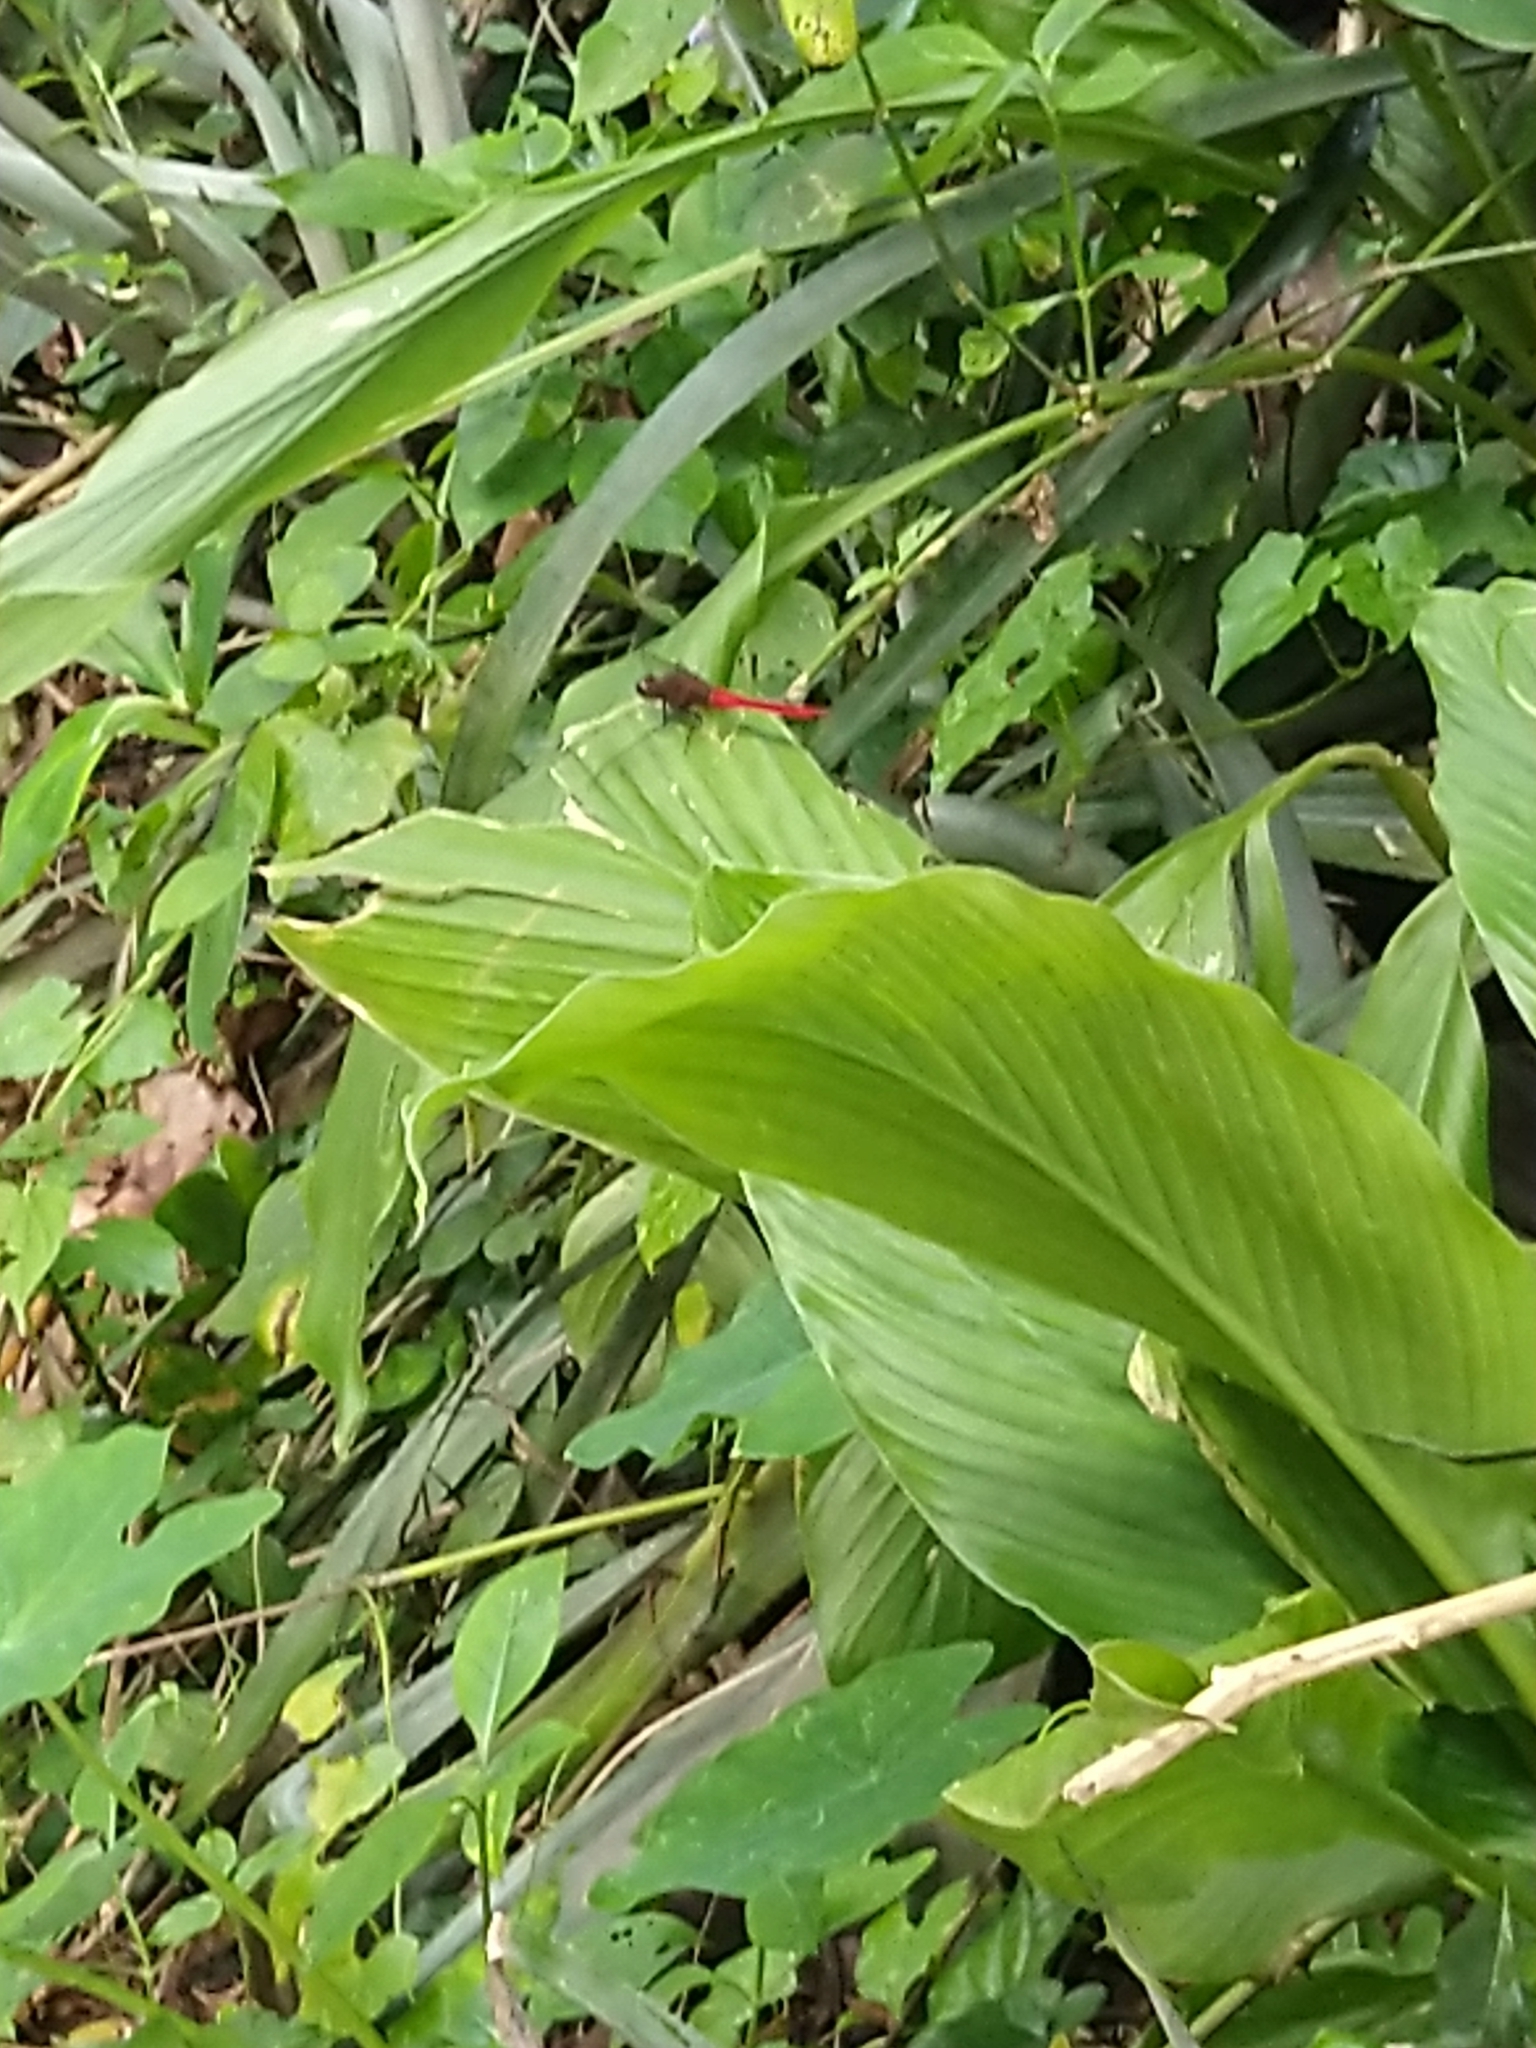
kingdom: Animalia
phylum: Arthropoda
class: Insecta
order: Odonata
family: Libellulidae
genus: Orthetrum
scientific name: Orthetrum chrysis
